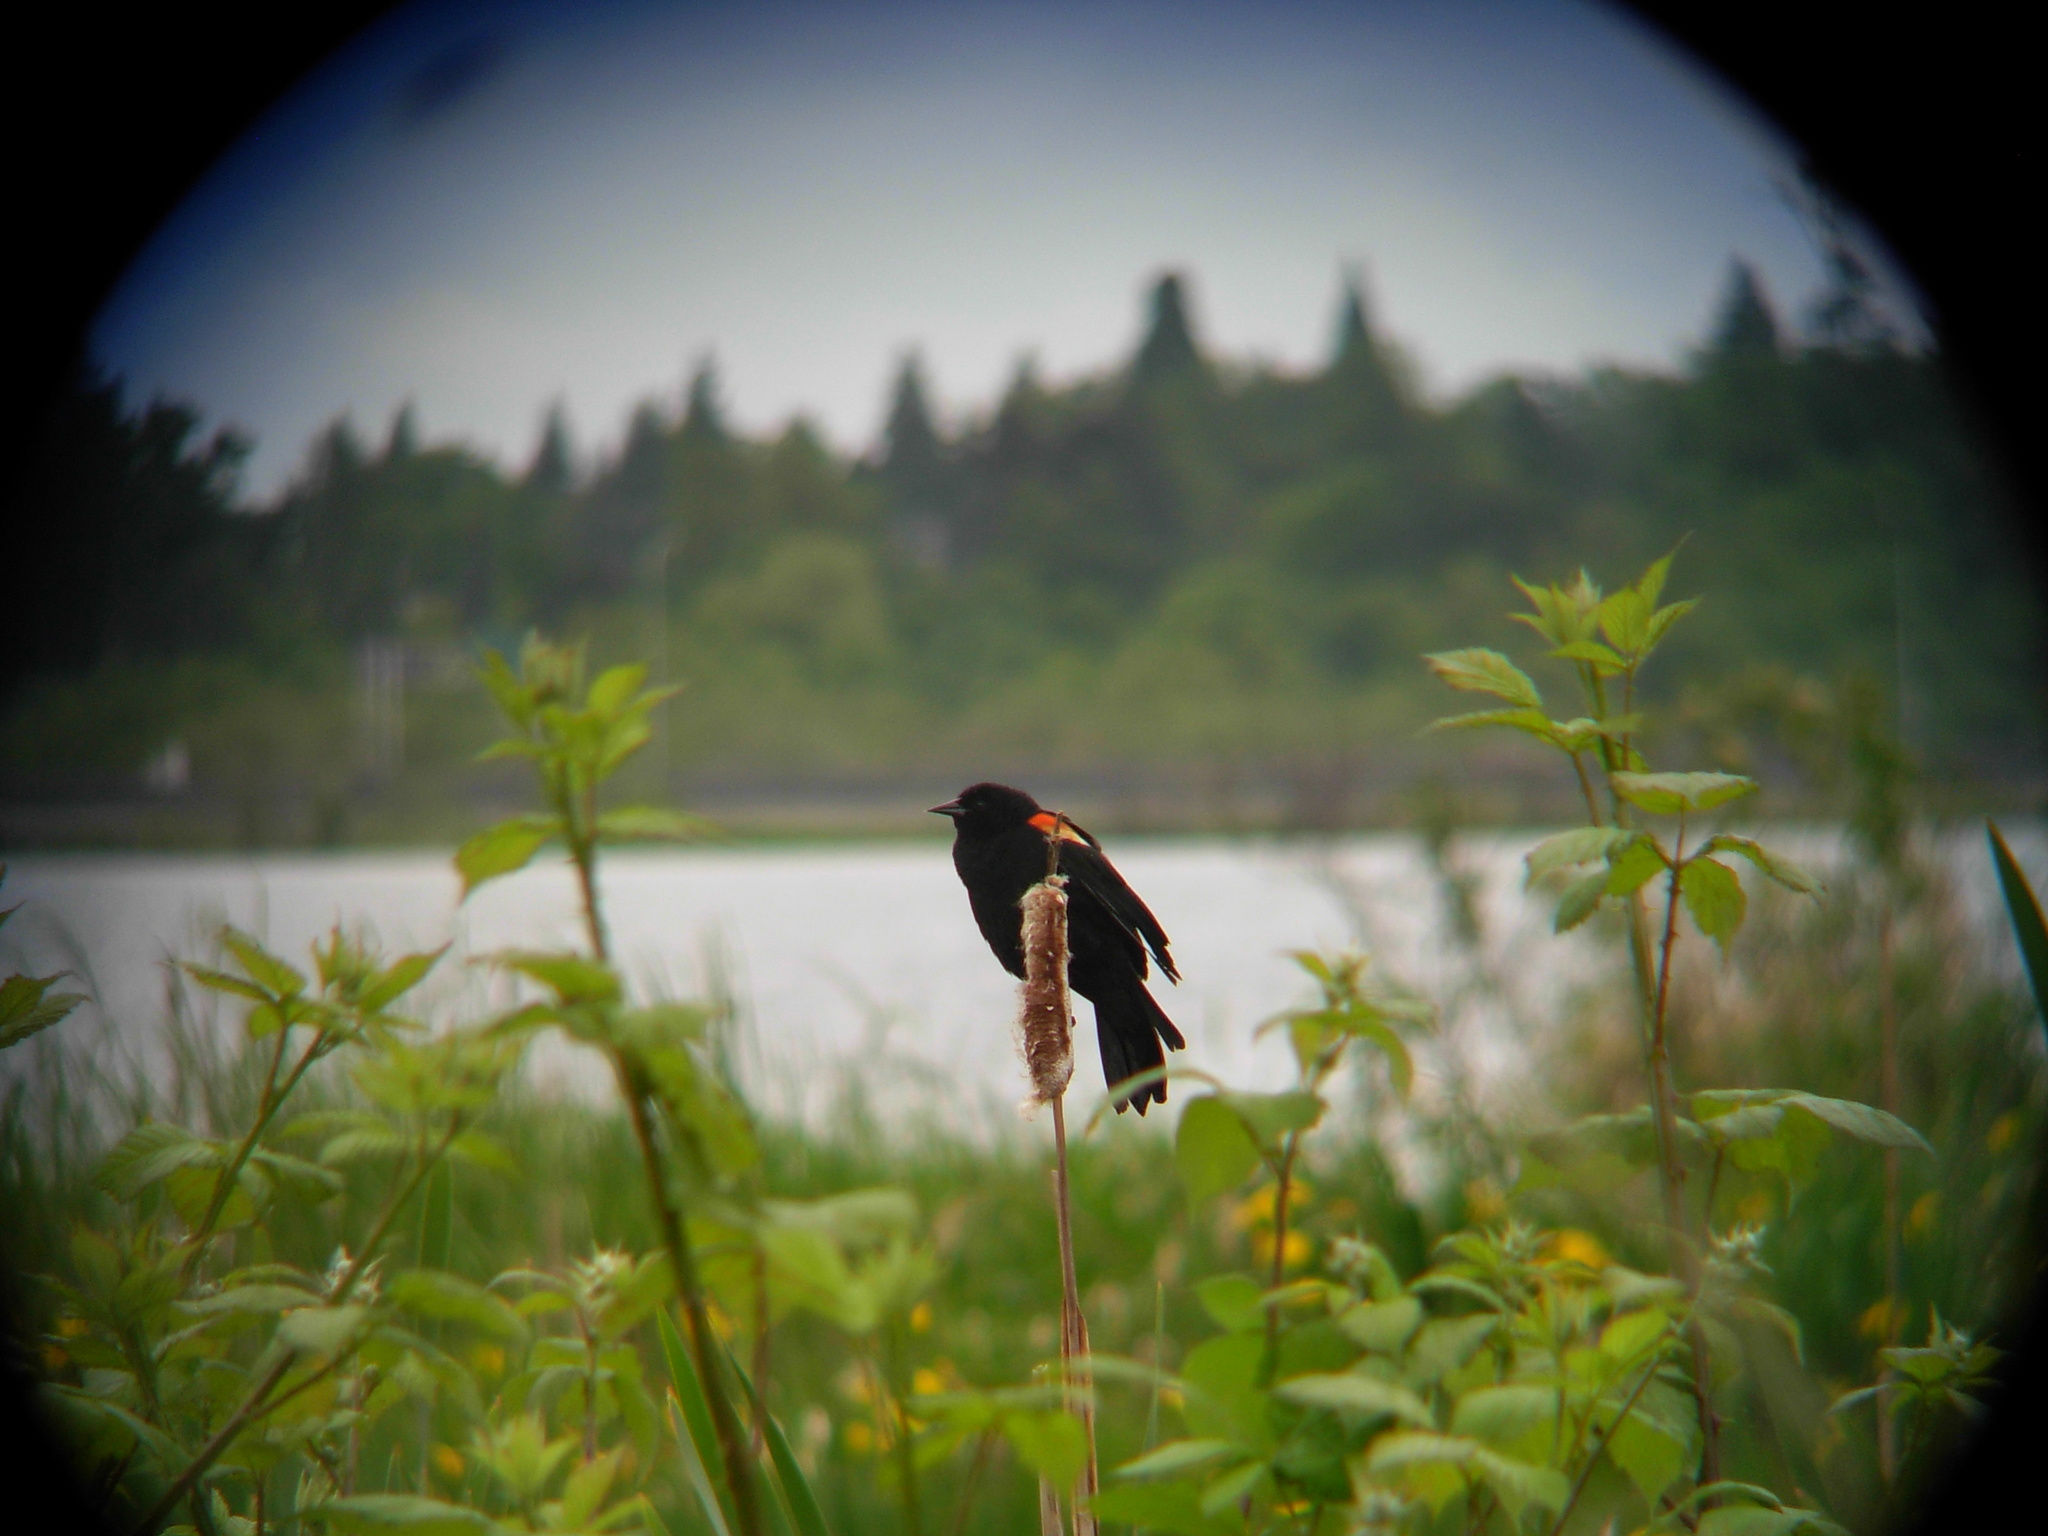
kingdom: Animalia
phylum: Chordata
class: Aves
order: Passeriformes
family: Icteridae
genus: Agelaius
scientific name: Agelaius phoeniceus
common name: Red-winged blackbird
